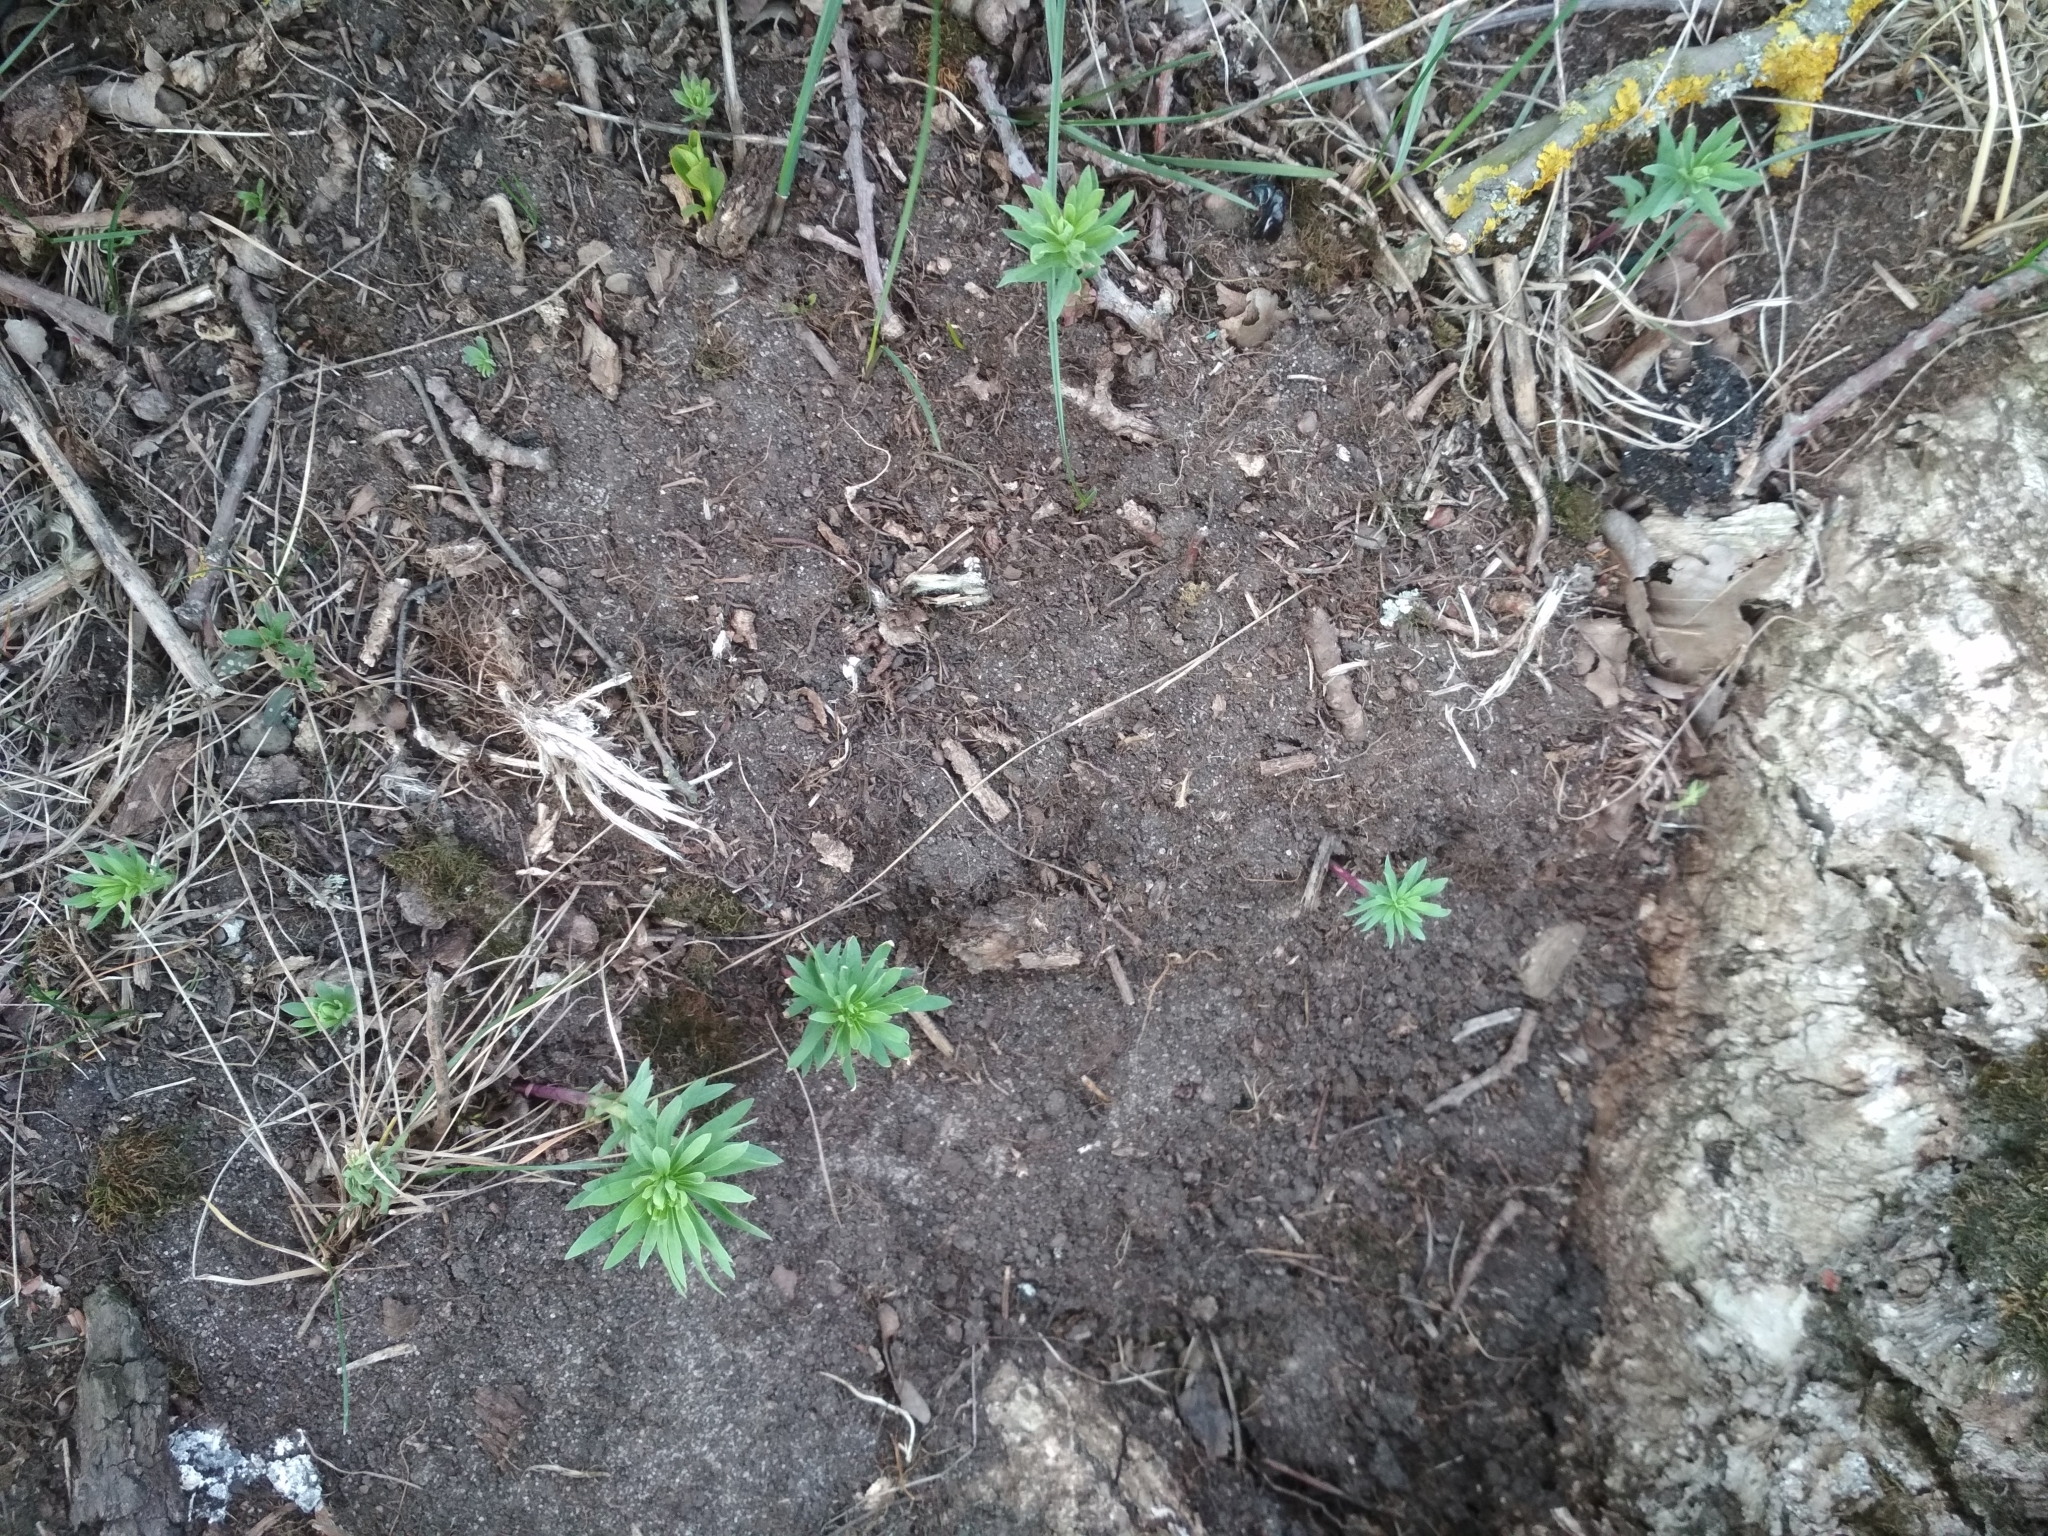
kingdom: Plantae
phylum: Tracheophyta
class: Magnoliopsida
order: Lamiales
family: Plantaginaceae
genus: Linaria
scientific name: Linaria vulgaris
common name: Butter and eggs
